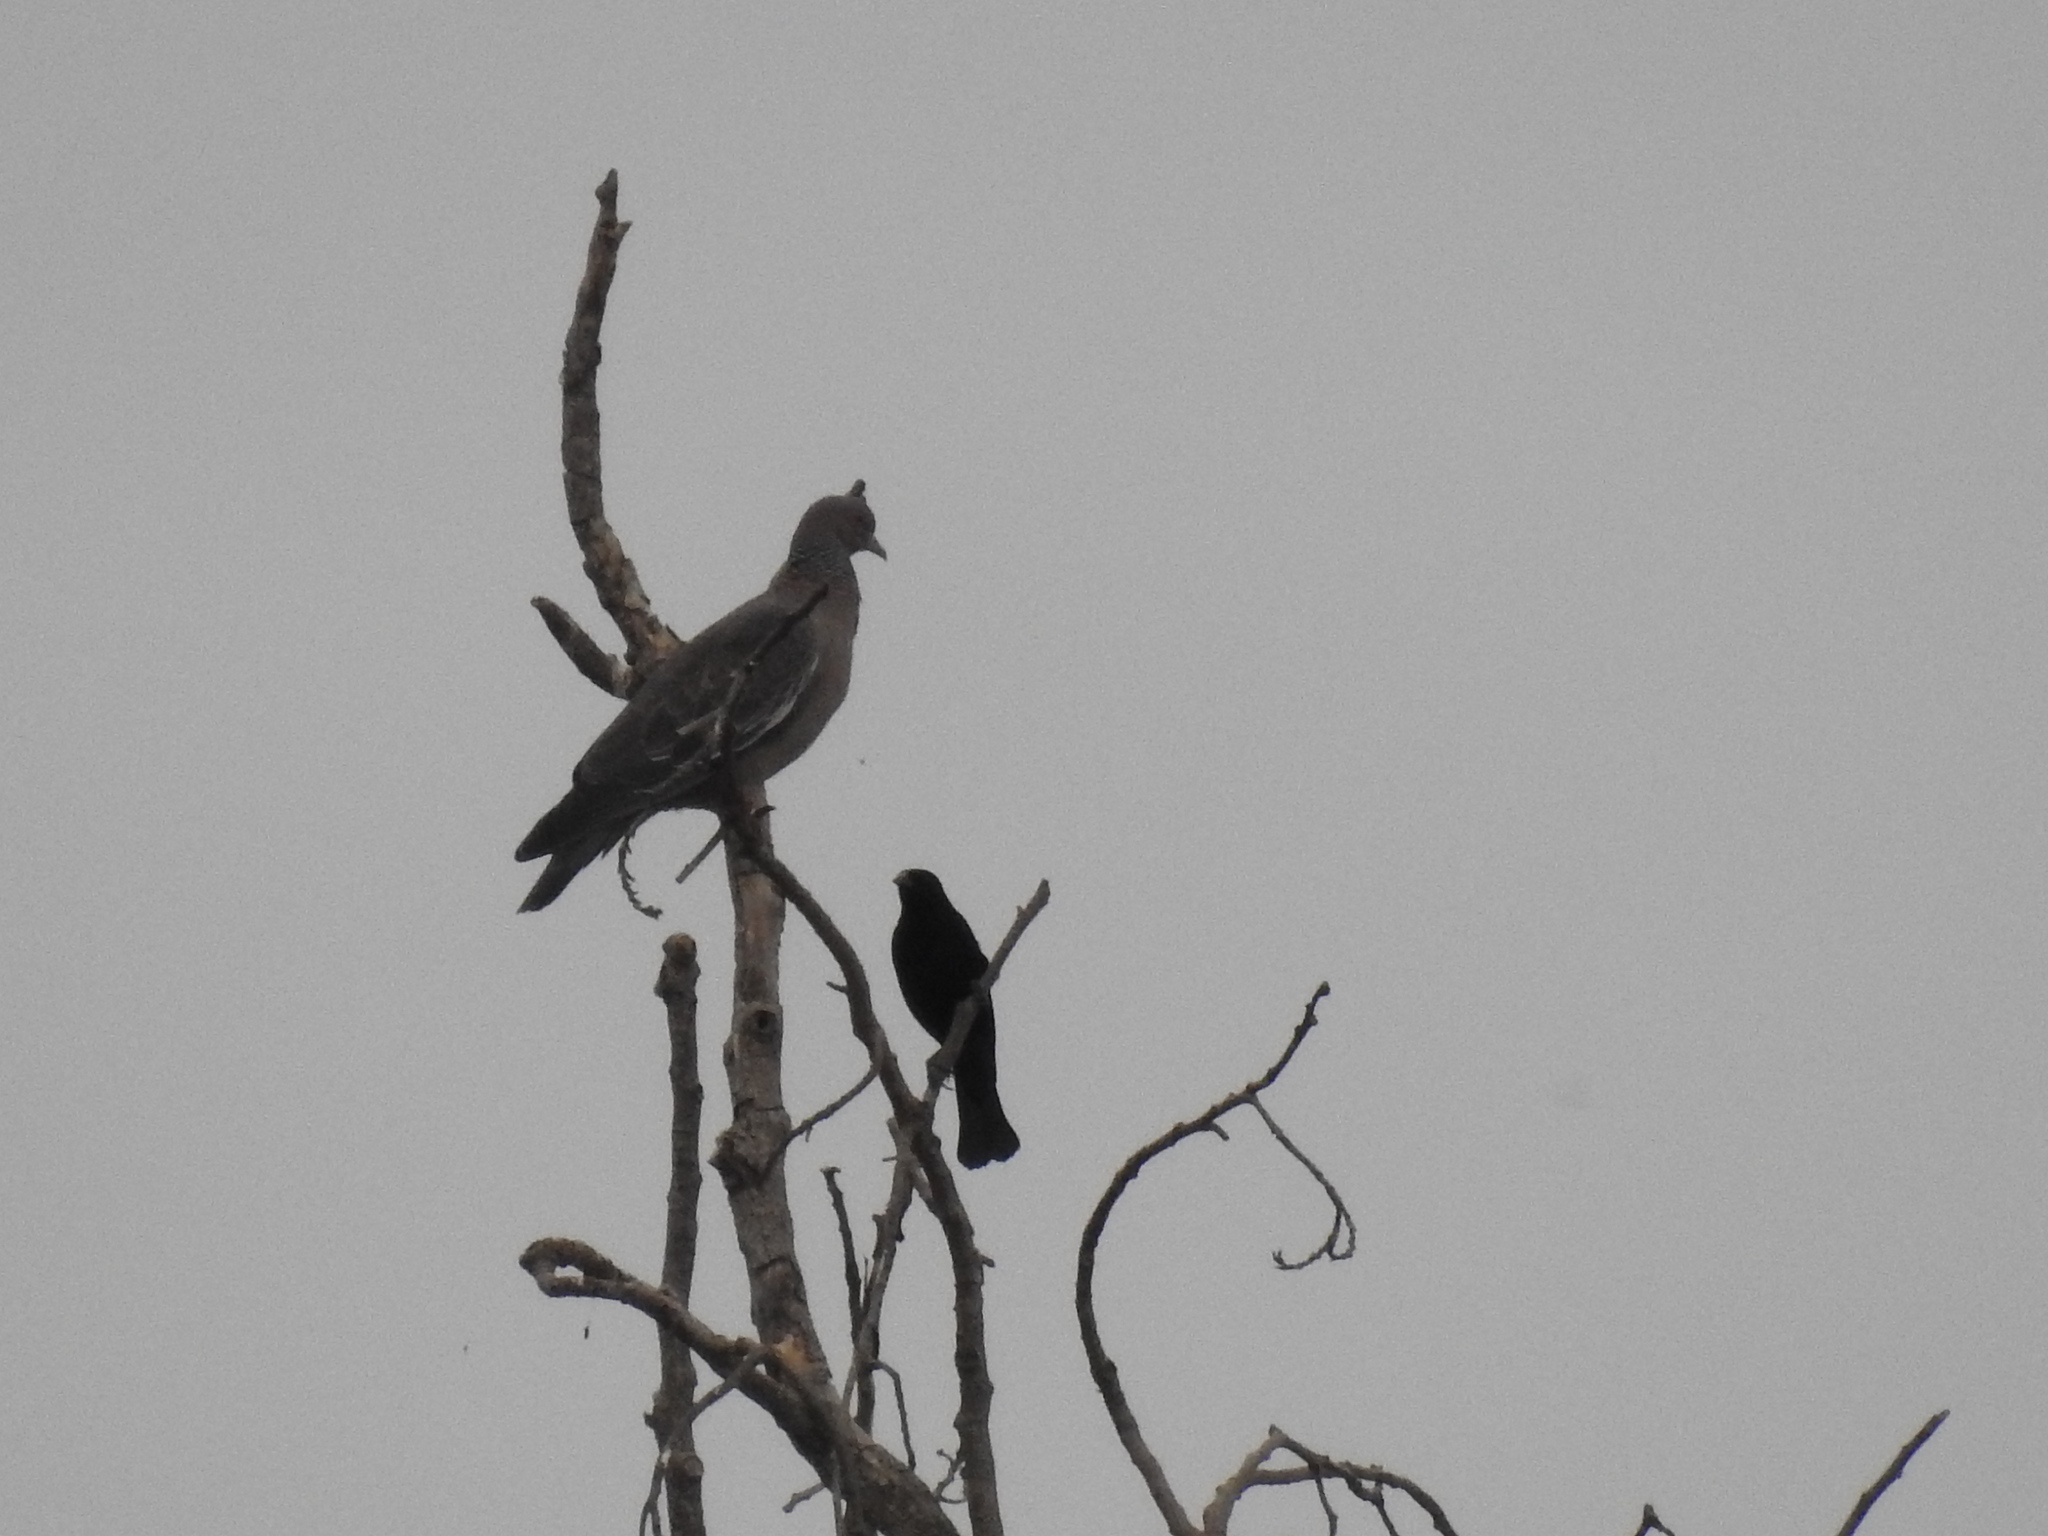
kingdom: Animalia
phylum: Chordata
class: Aves
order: Columbiformes
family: Columbidae
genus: Patagioenas
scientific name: Patagioenas picazuro
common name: Picazuro pigeon
